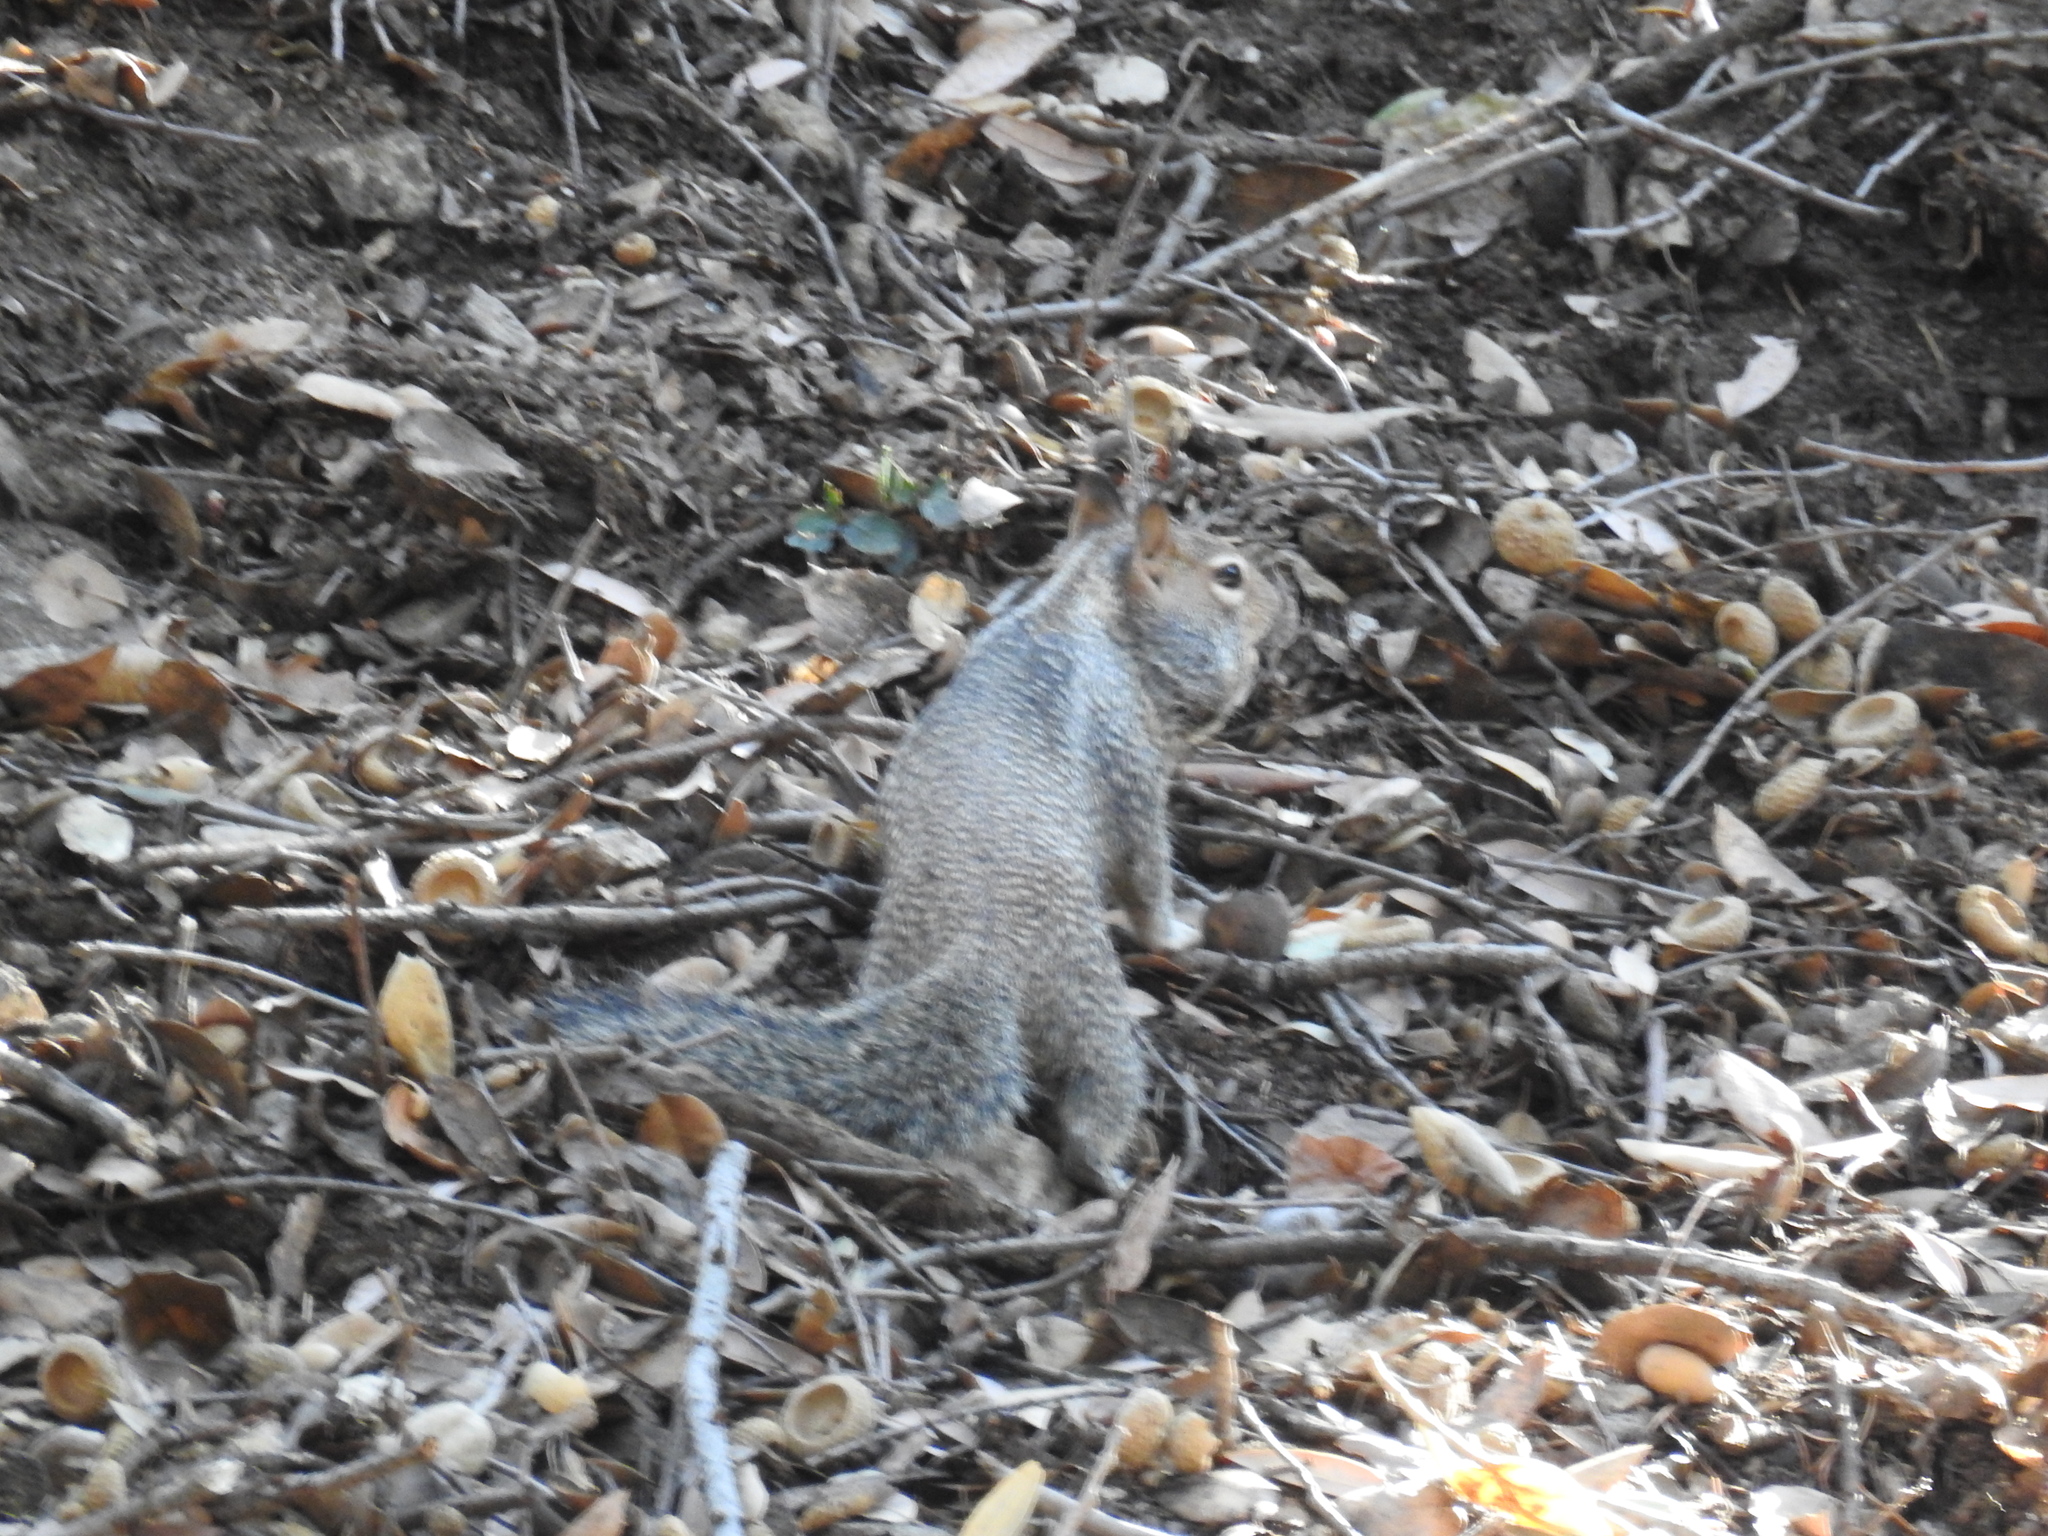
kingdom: Animalia
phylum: Chordata
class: Mammalia
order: Rodentia
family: Sciuridae
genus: Otospermophilus
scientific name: Otospermophilus beecheyi
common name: California ground squirrel
